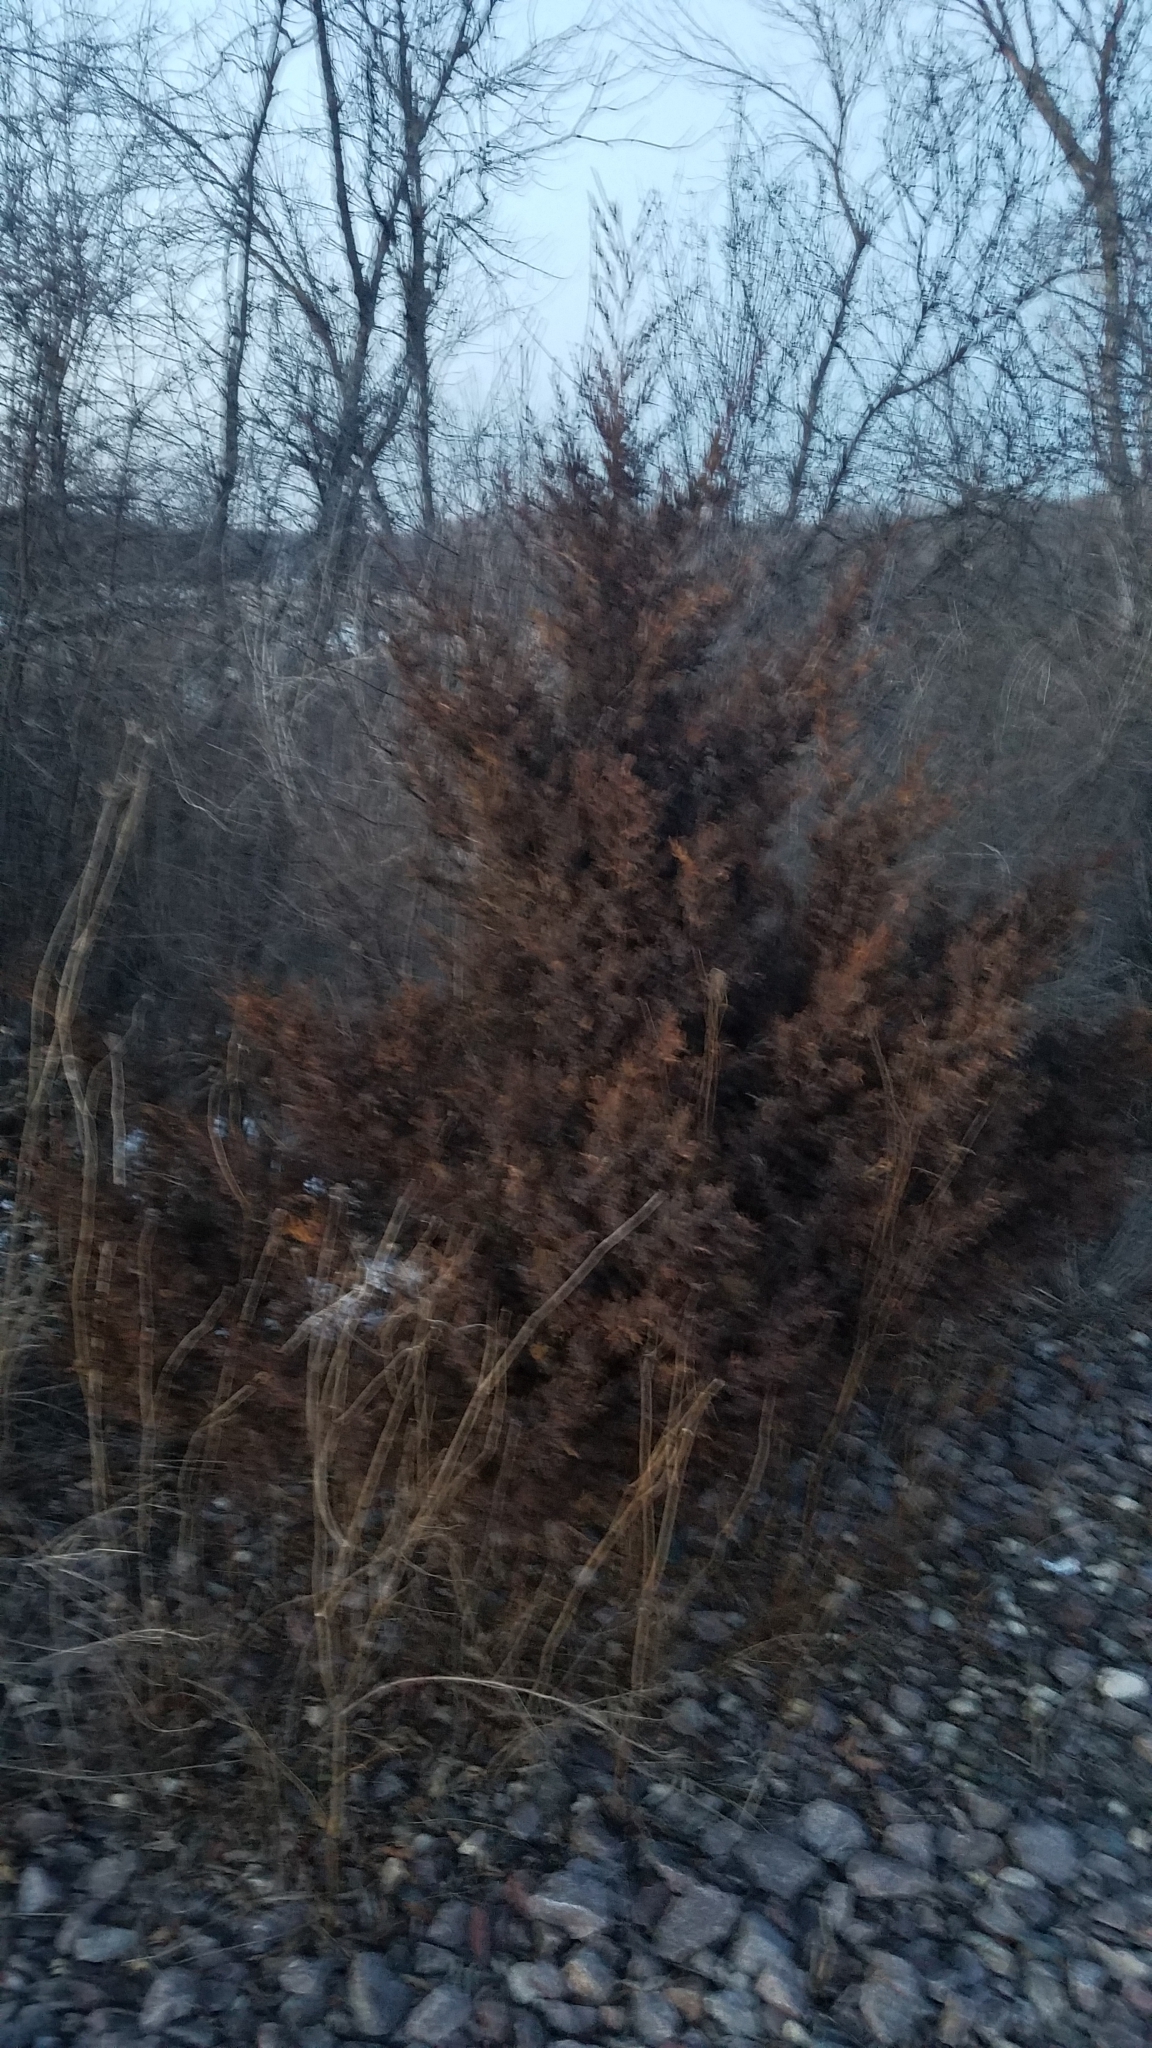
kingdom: Plantae
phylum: Tracheophyta
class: Pinopsida
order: Pinales
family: Cupressaceae
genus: Juniperus
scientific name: Juniperus virginiana
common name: Red juniper
